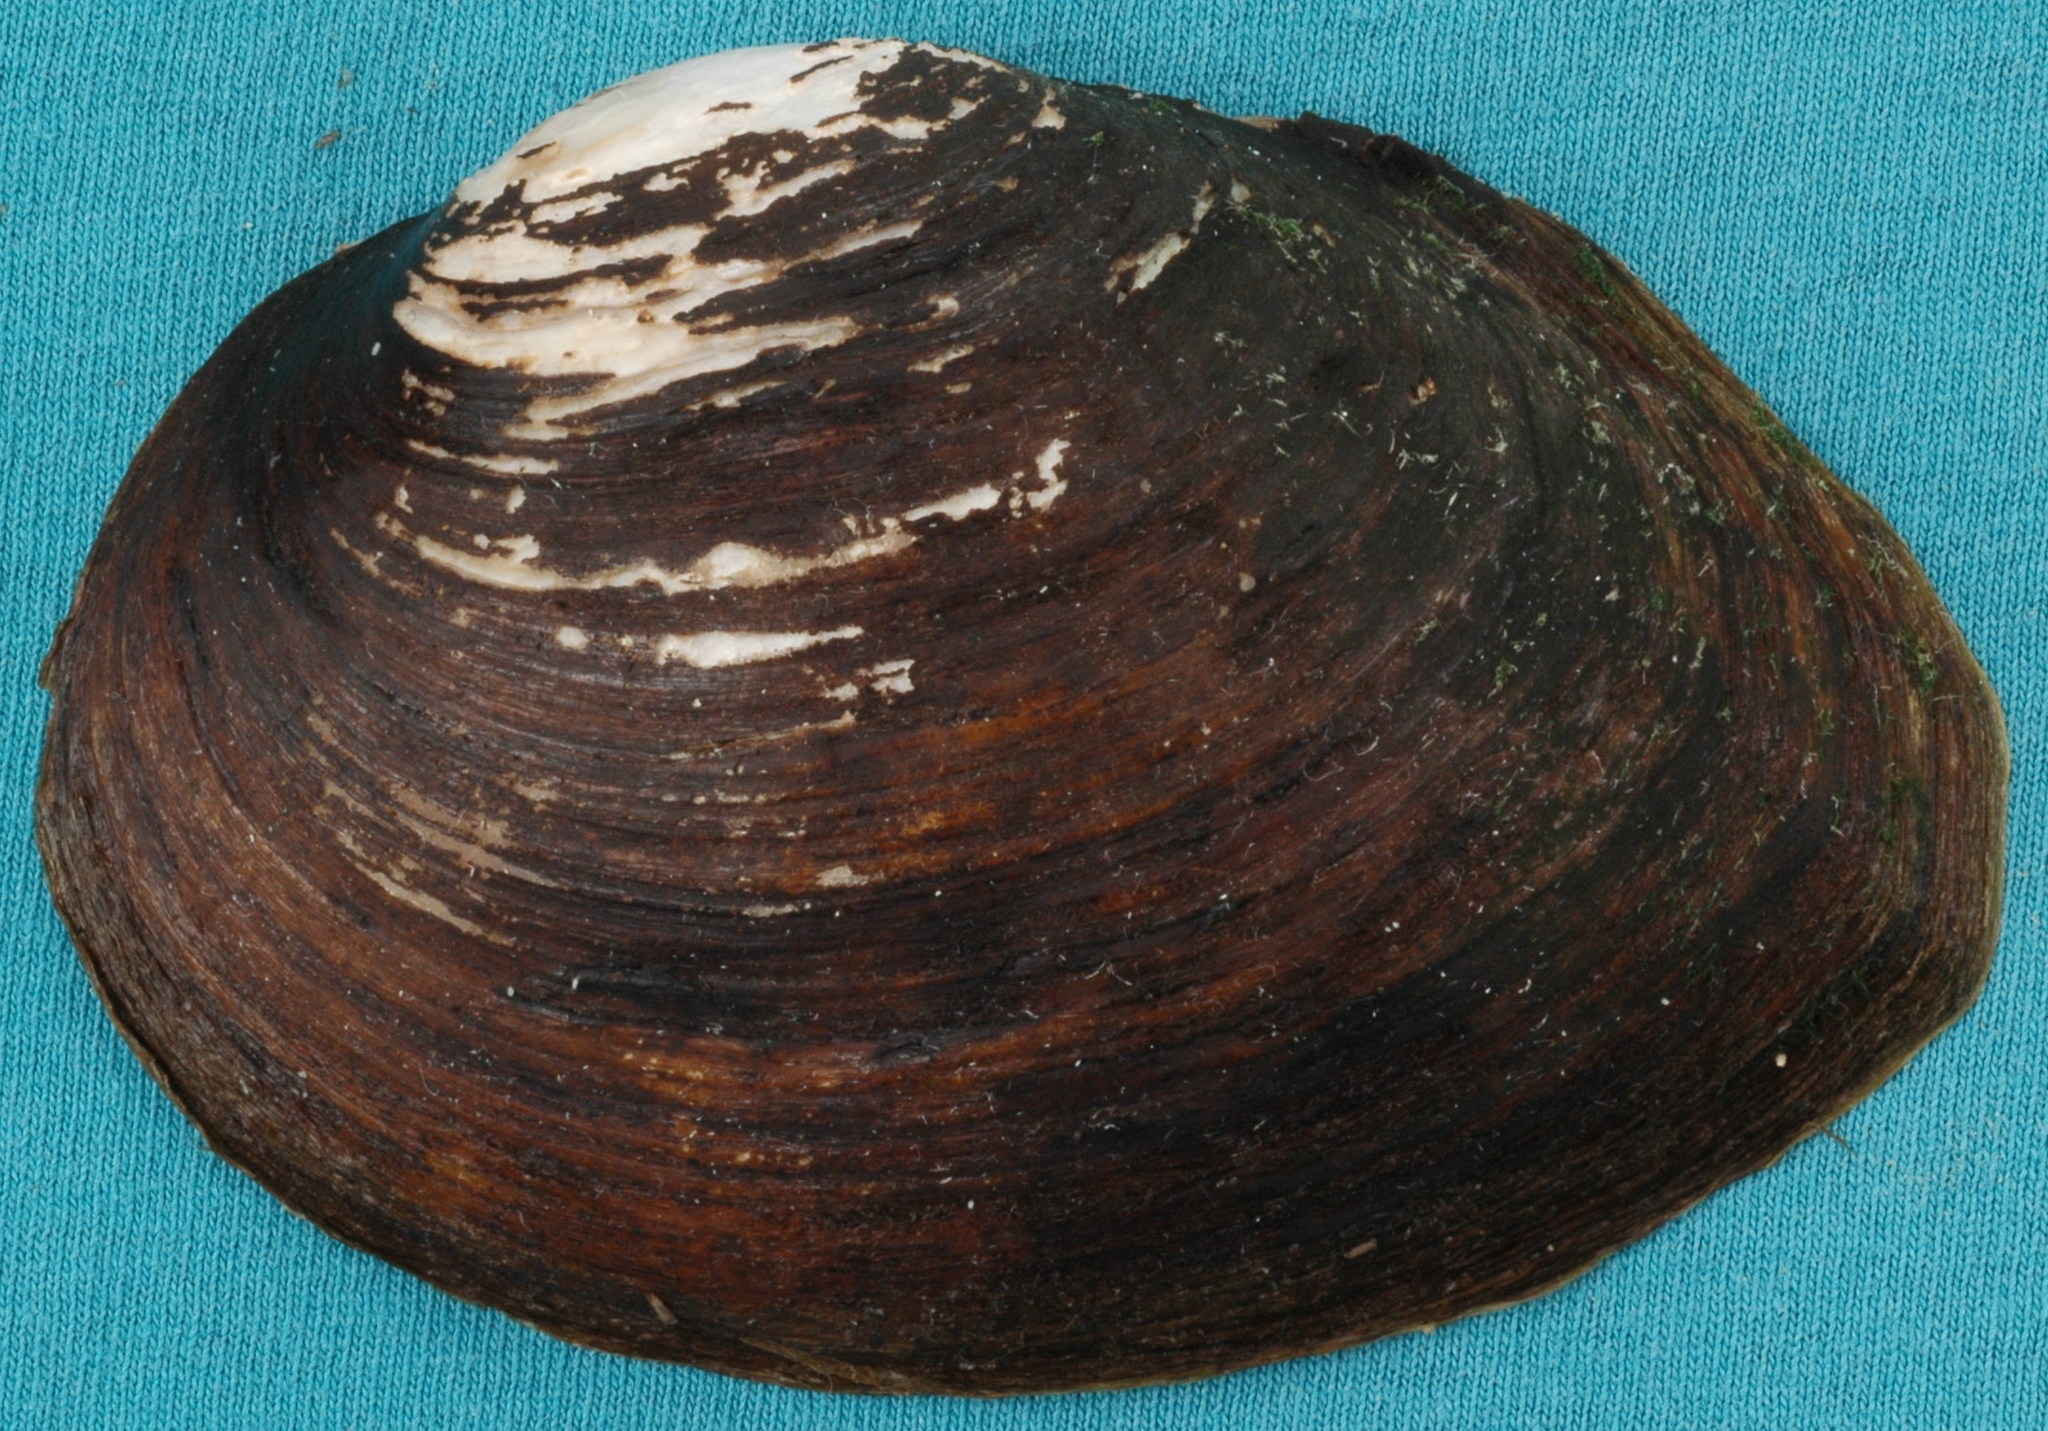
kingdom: Animalia
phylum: Mollusca
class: Bivalvia
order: Unionida
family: Unionidae
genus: Glebula
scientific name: Glebula rotundata
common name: Round pearlshell
